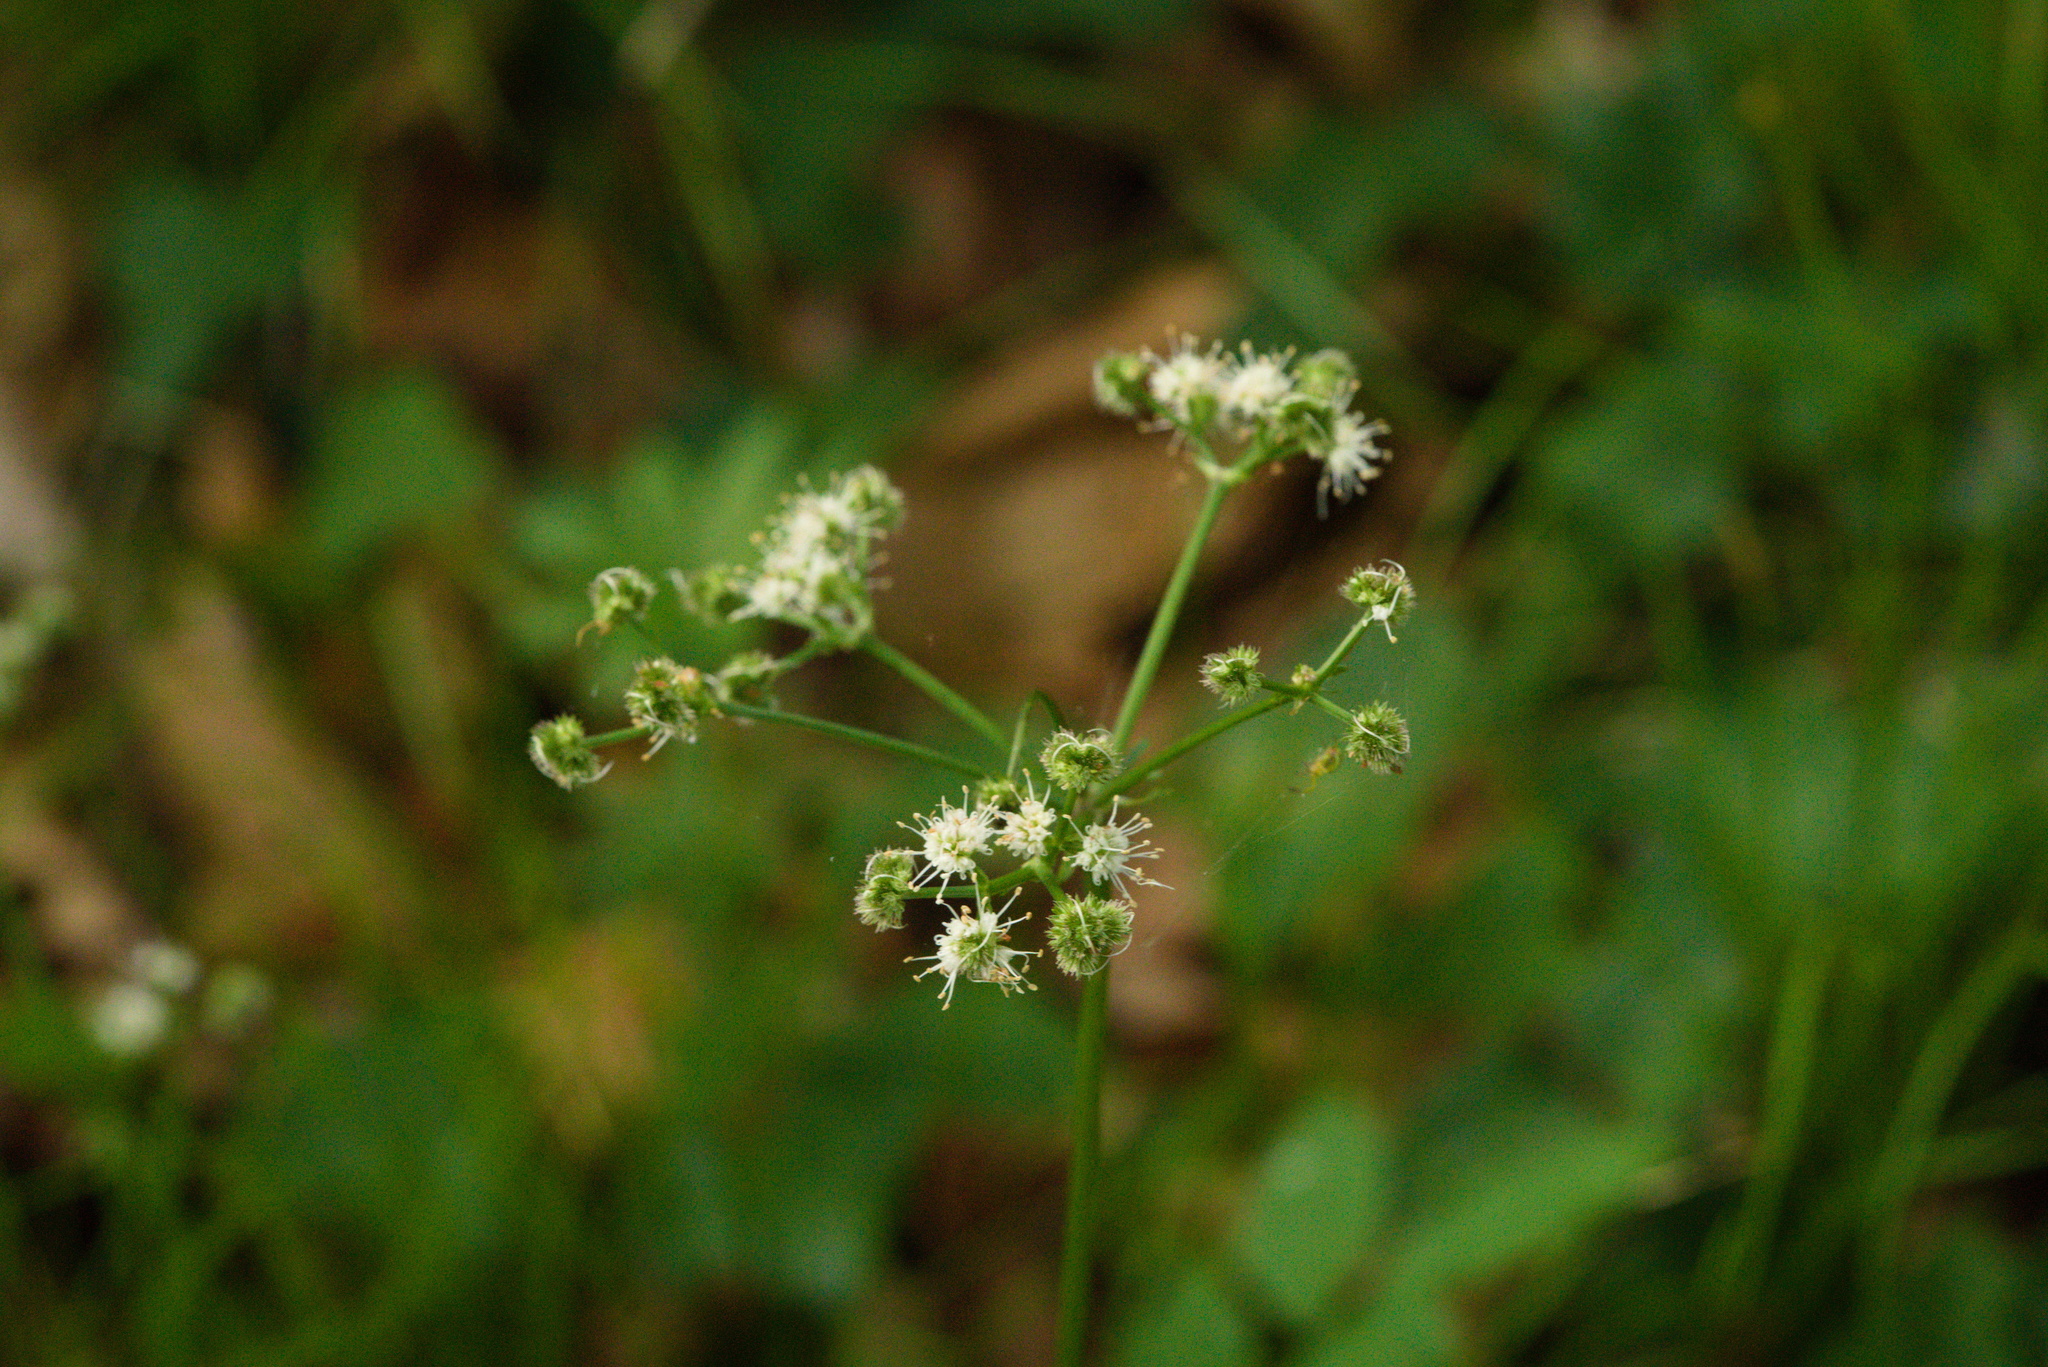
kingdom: Plantae
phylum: Tracheophyta
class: Magnoliopsida
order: Apiales
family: Apiaceae
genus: Sanicula
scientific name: Sanicula europaea
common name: Sanicle
